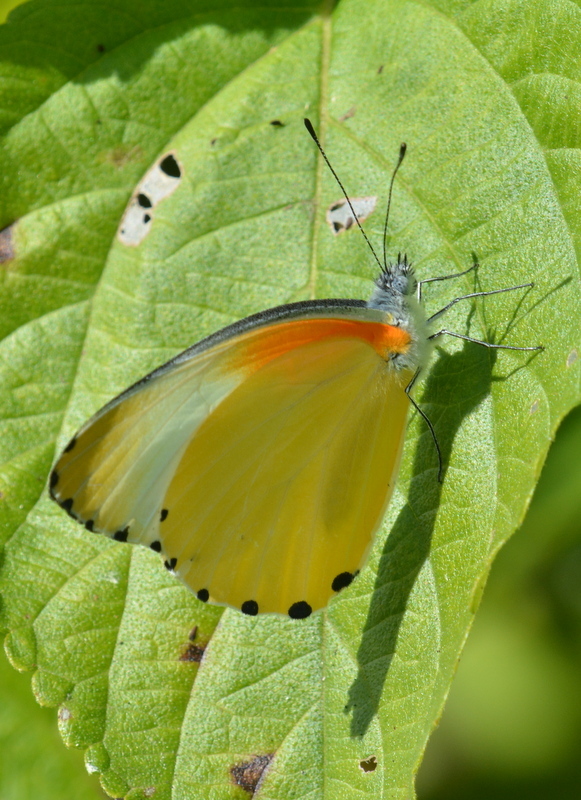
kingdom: Animalia
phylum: Arthropoda
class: Insecta
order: Lepidoptera
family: Pieridae
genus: Mylothris
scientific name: Mylothris agathina
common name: Eastern dotted border
